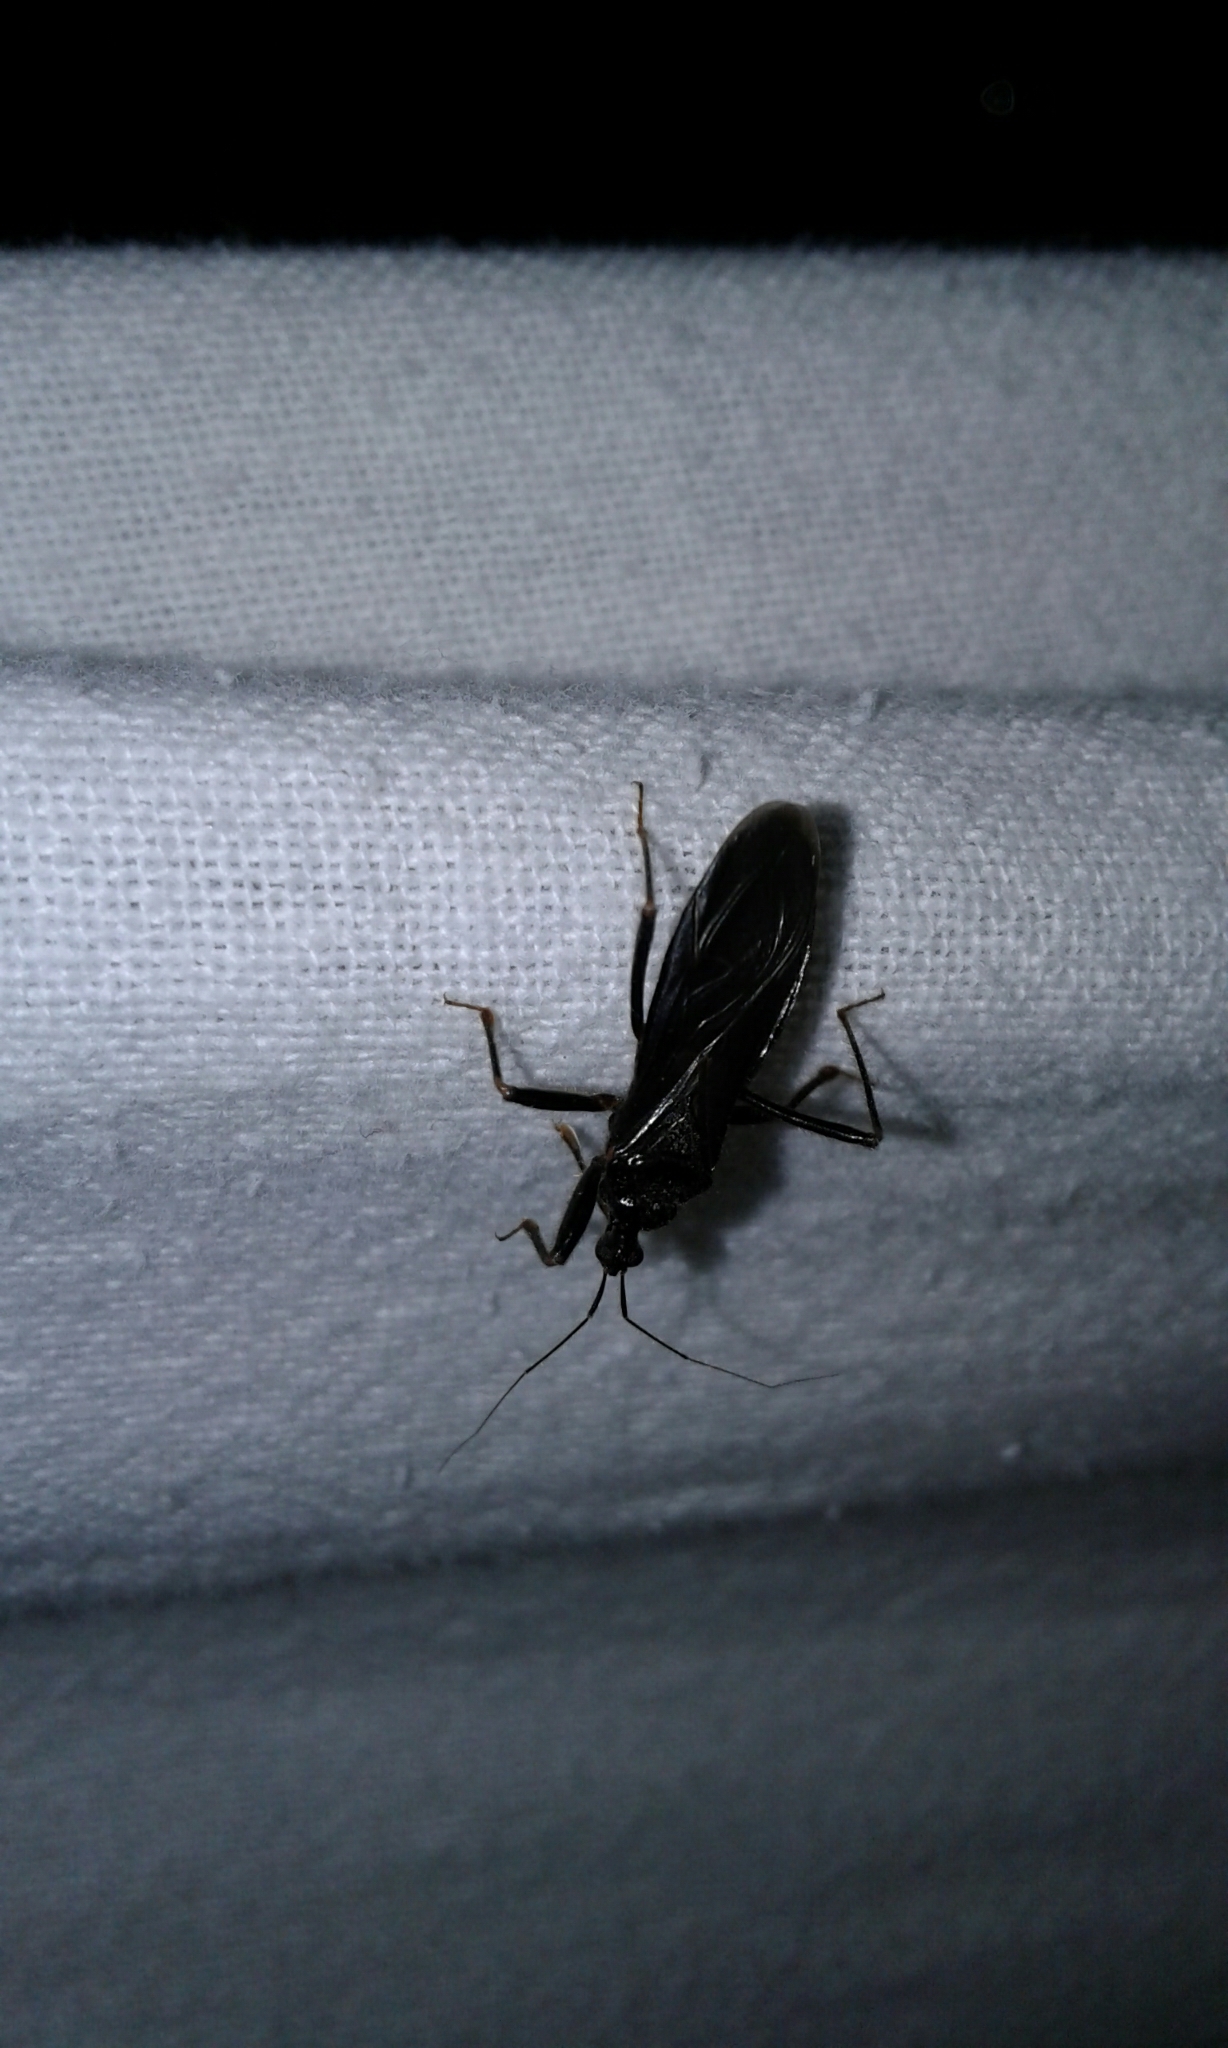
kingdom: Animalia
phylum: Arthropoda
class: Insecta
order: Hemiptera
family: Reduviidae
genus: Reduvius
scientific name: Reduvius personatus
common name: Masked hunter
